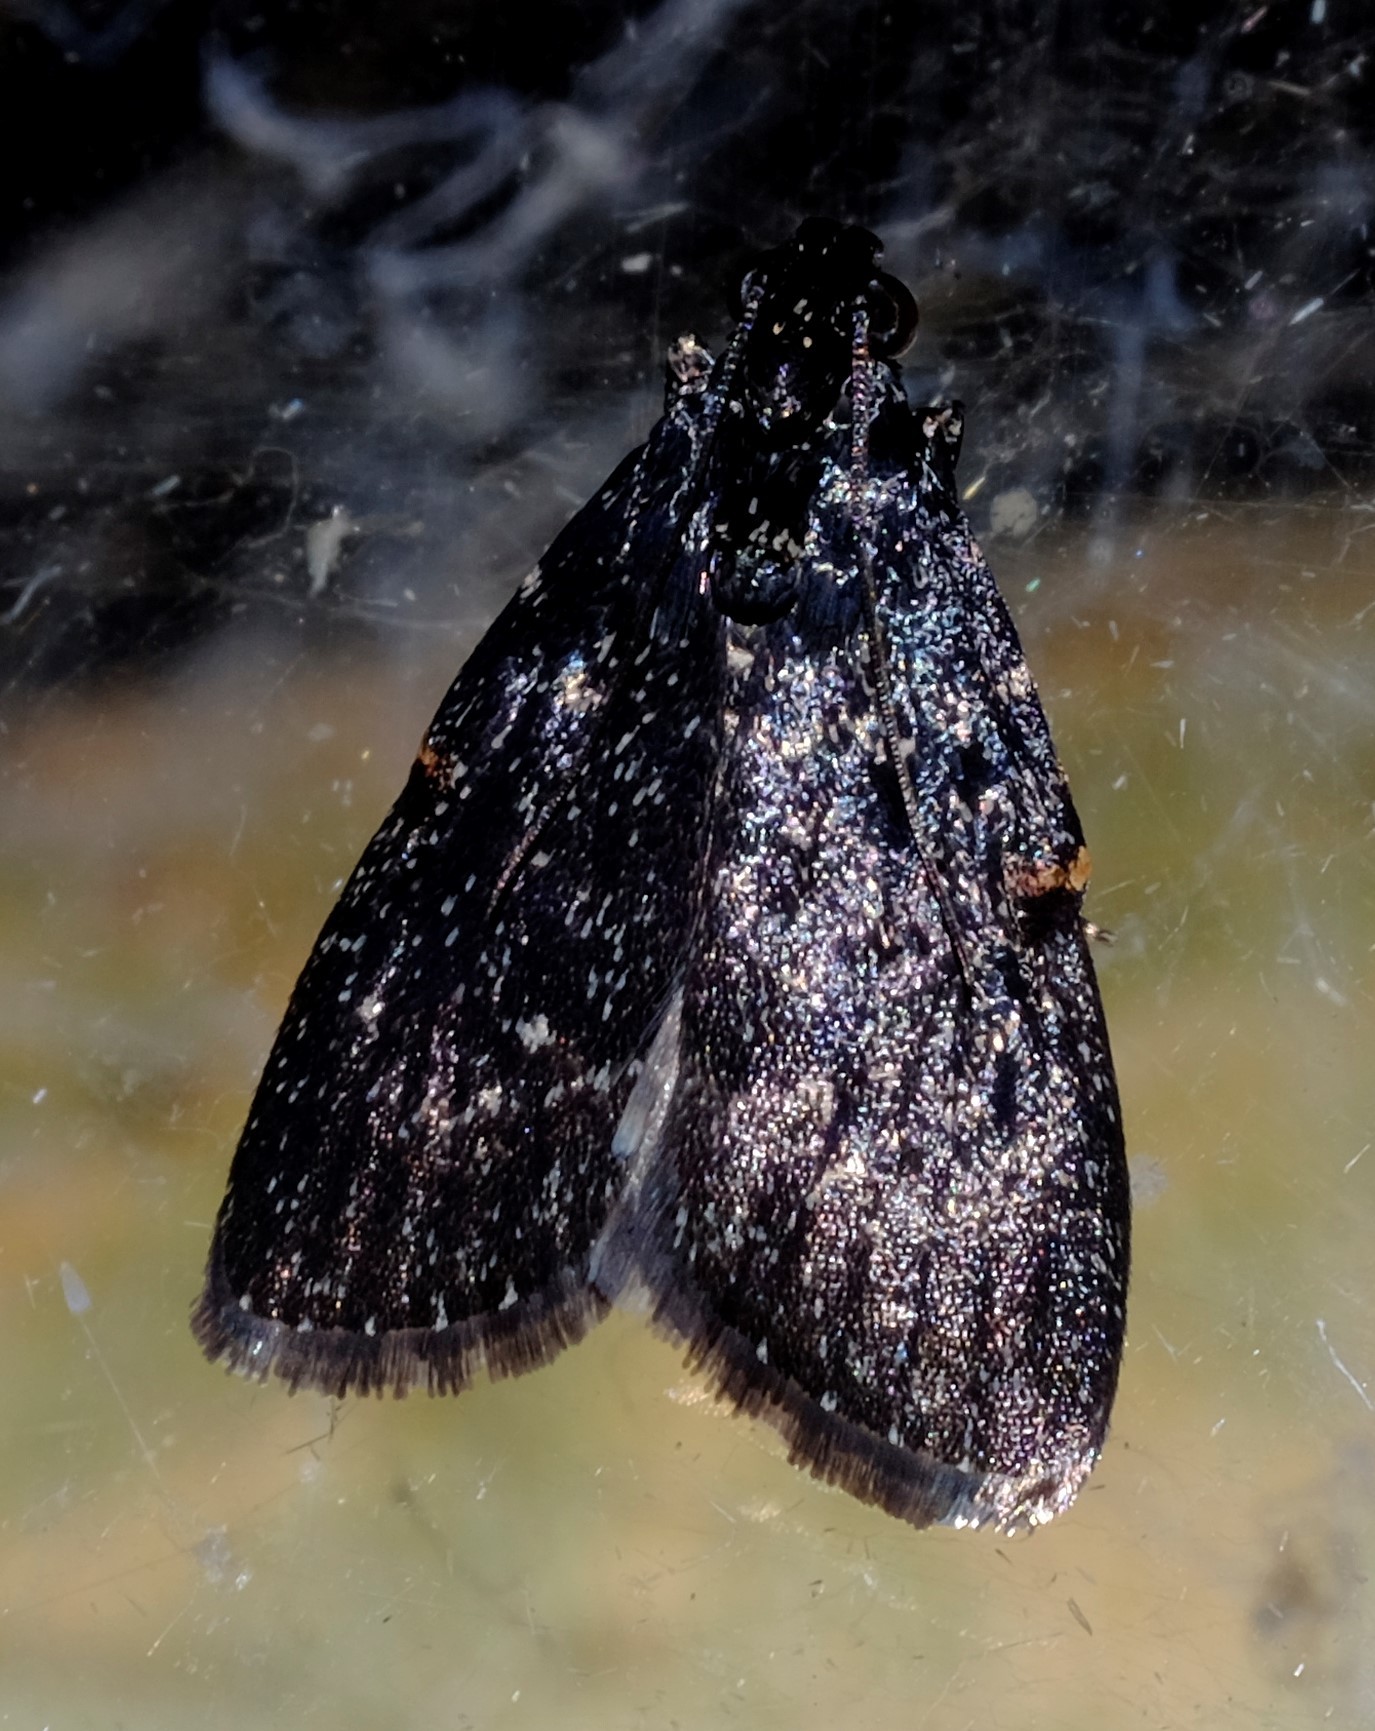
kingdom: Animalia
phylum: Arthropoda
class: Insecta
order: Lepidoptera
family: Pyralidae
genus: Stericta
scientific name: Stericta carbonalis
